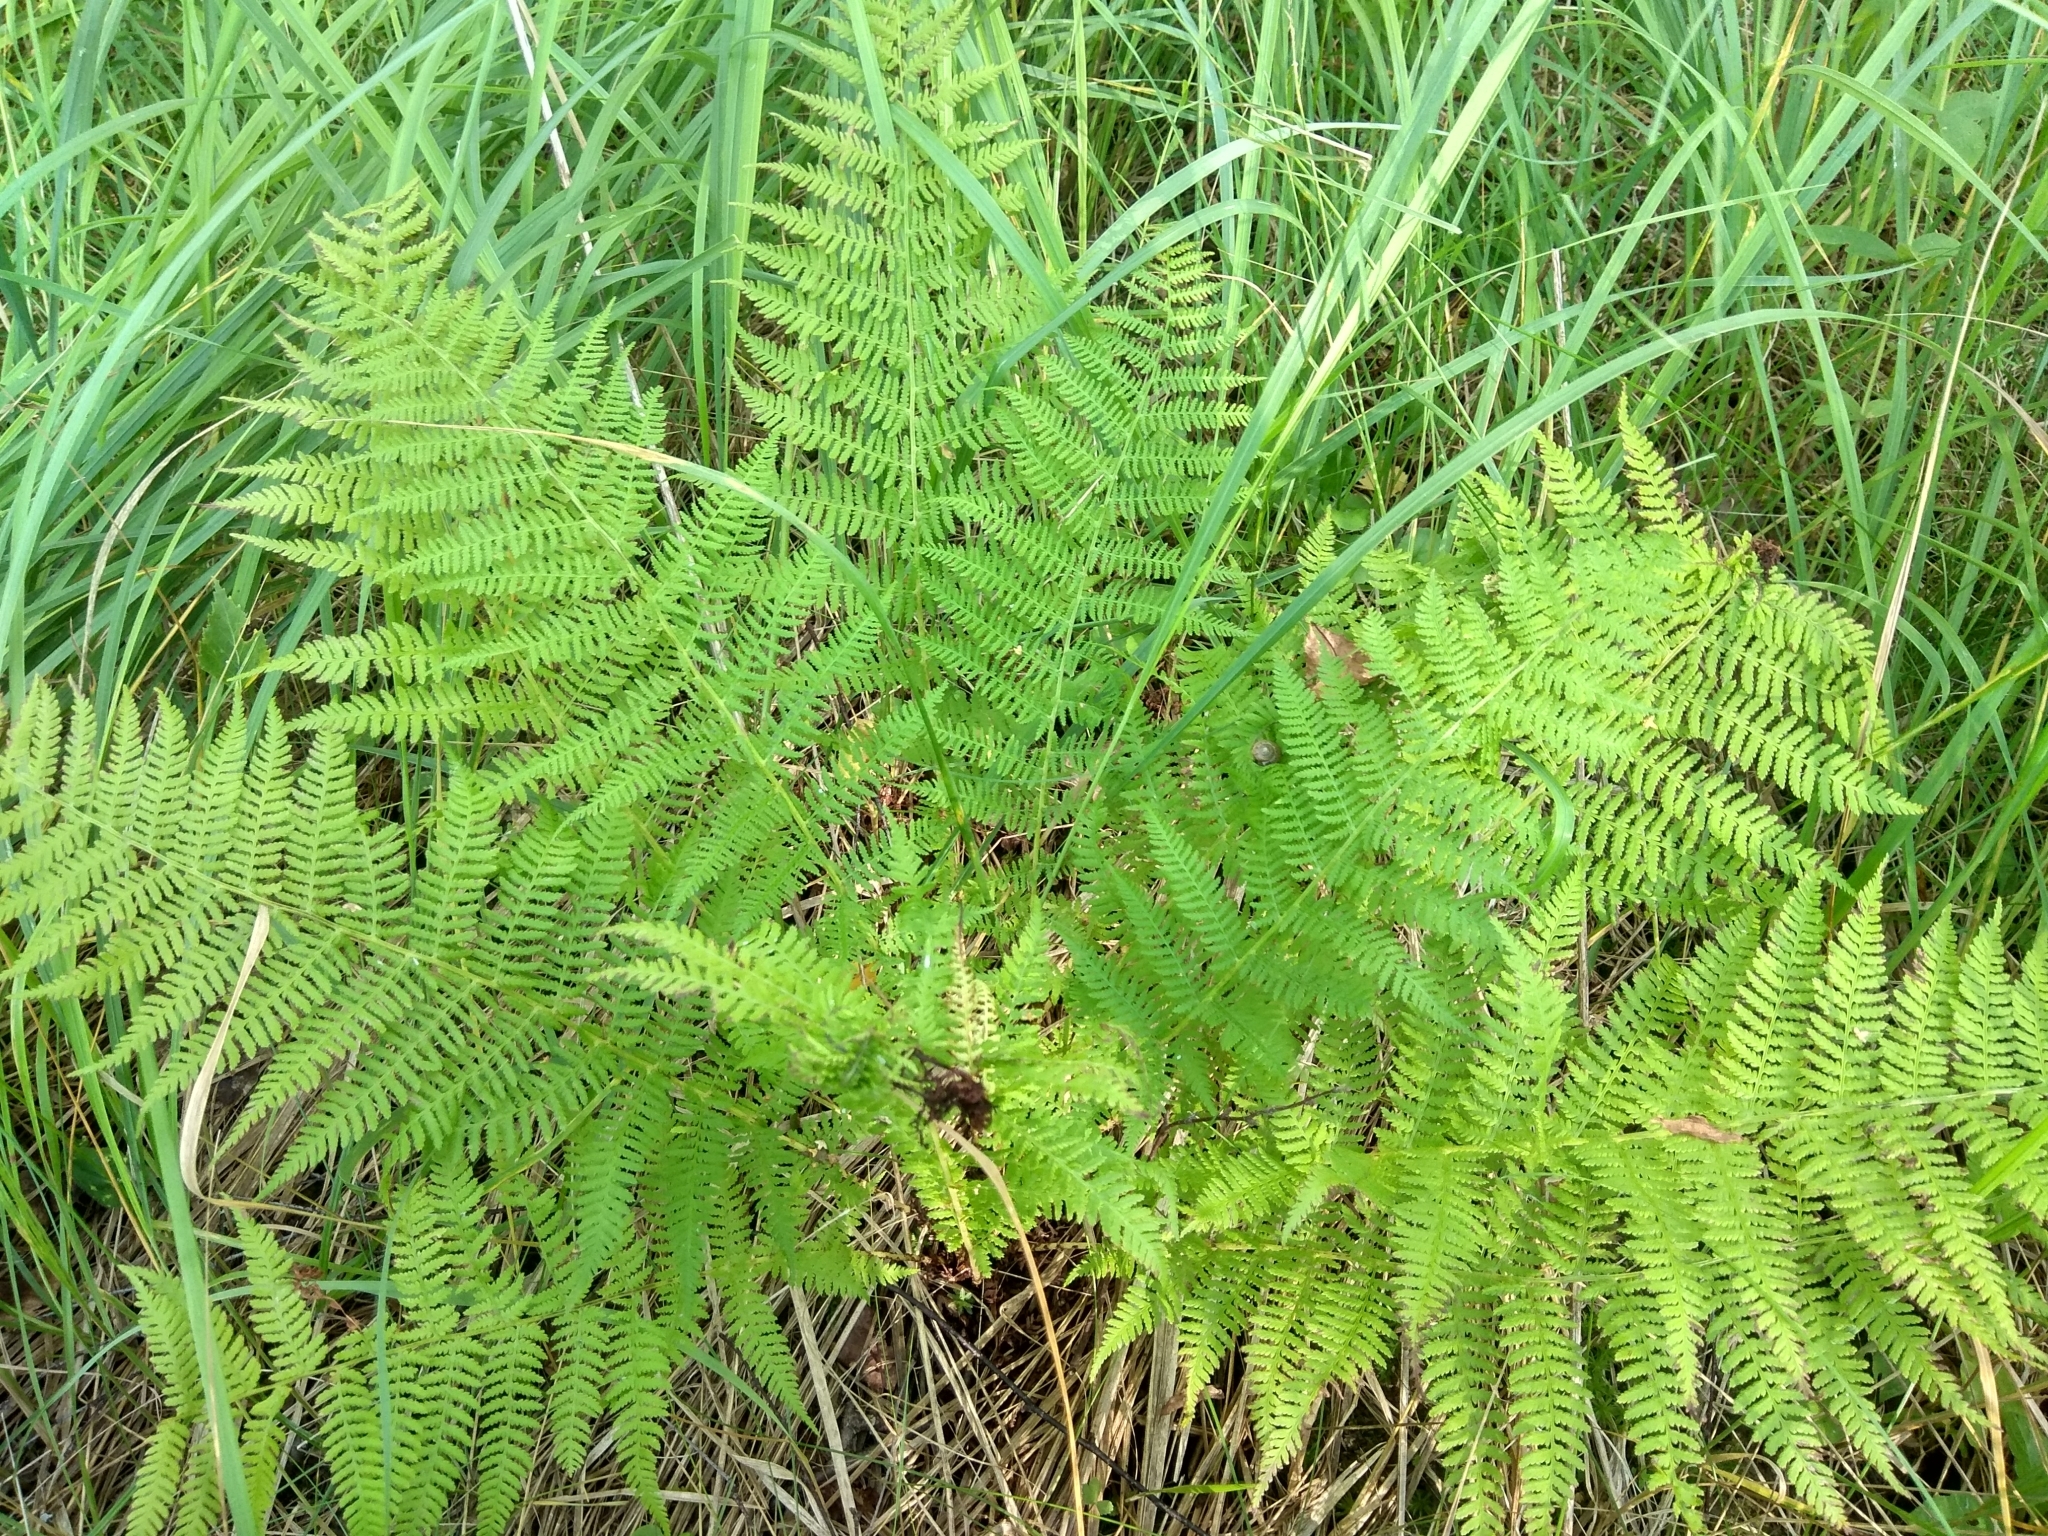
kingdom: Plantae
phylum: Tracheophyta
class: Polypodiopsida
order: Polypodiales
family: Athyriaceae
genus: Athyrium
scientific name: Athyrium filix-femina
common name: Lady fern
